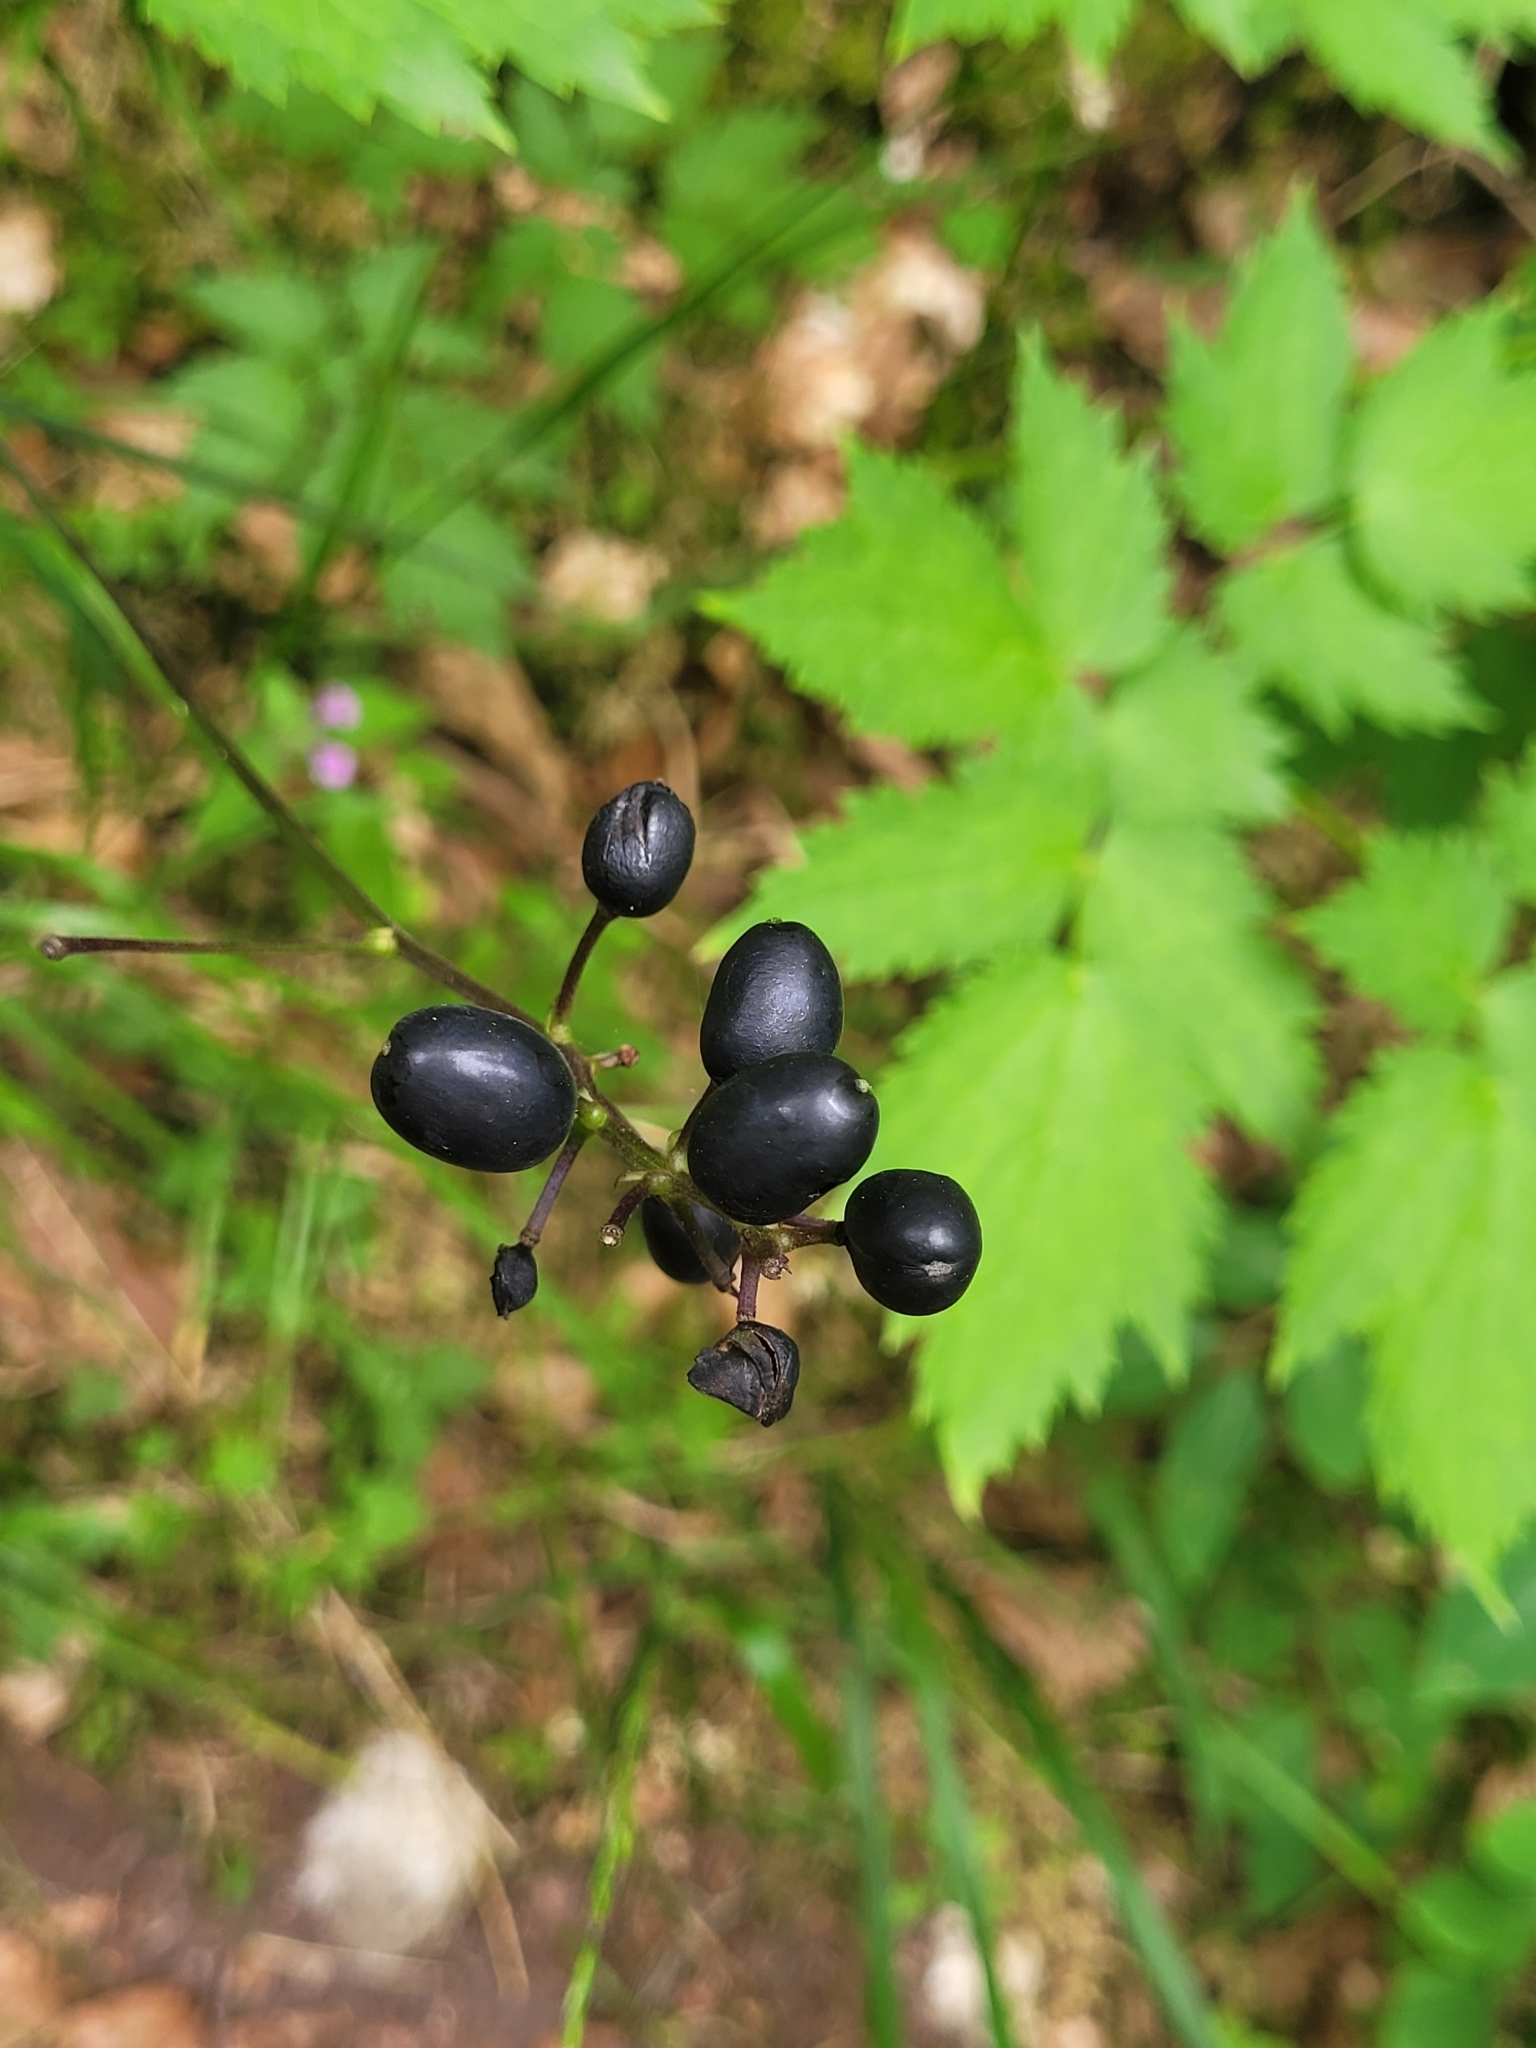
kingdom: Plantae
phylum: Tracheophyta
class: Magnoliopsida
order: Ranunculales
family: Ranunculaceae
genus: Actaea
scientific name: Actaea spicata
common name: Baneberry
